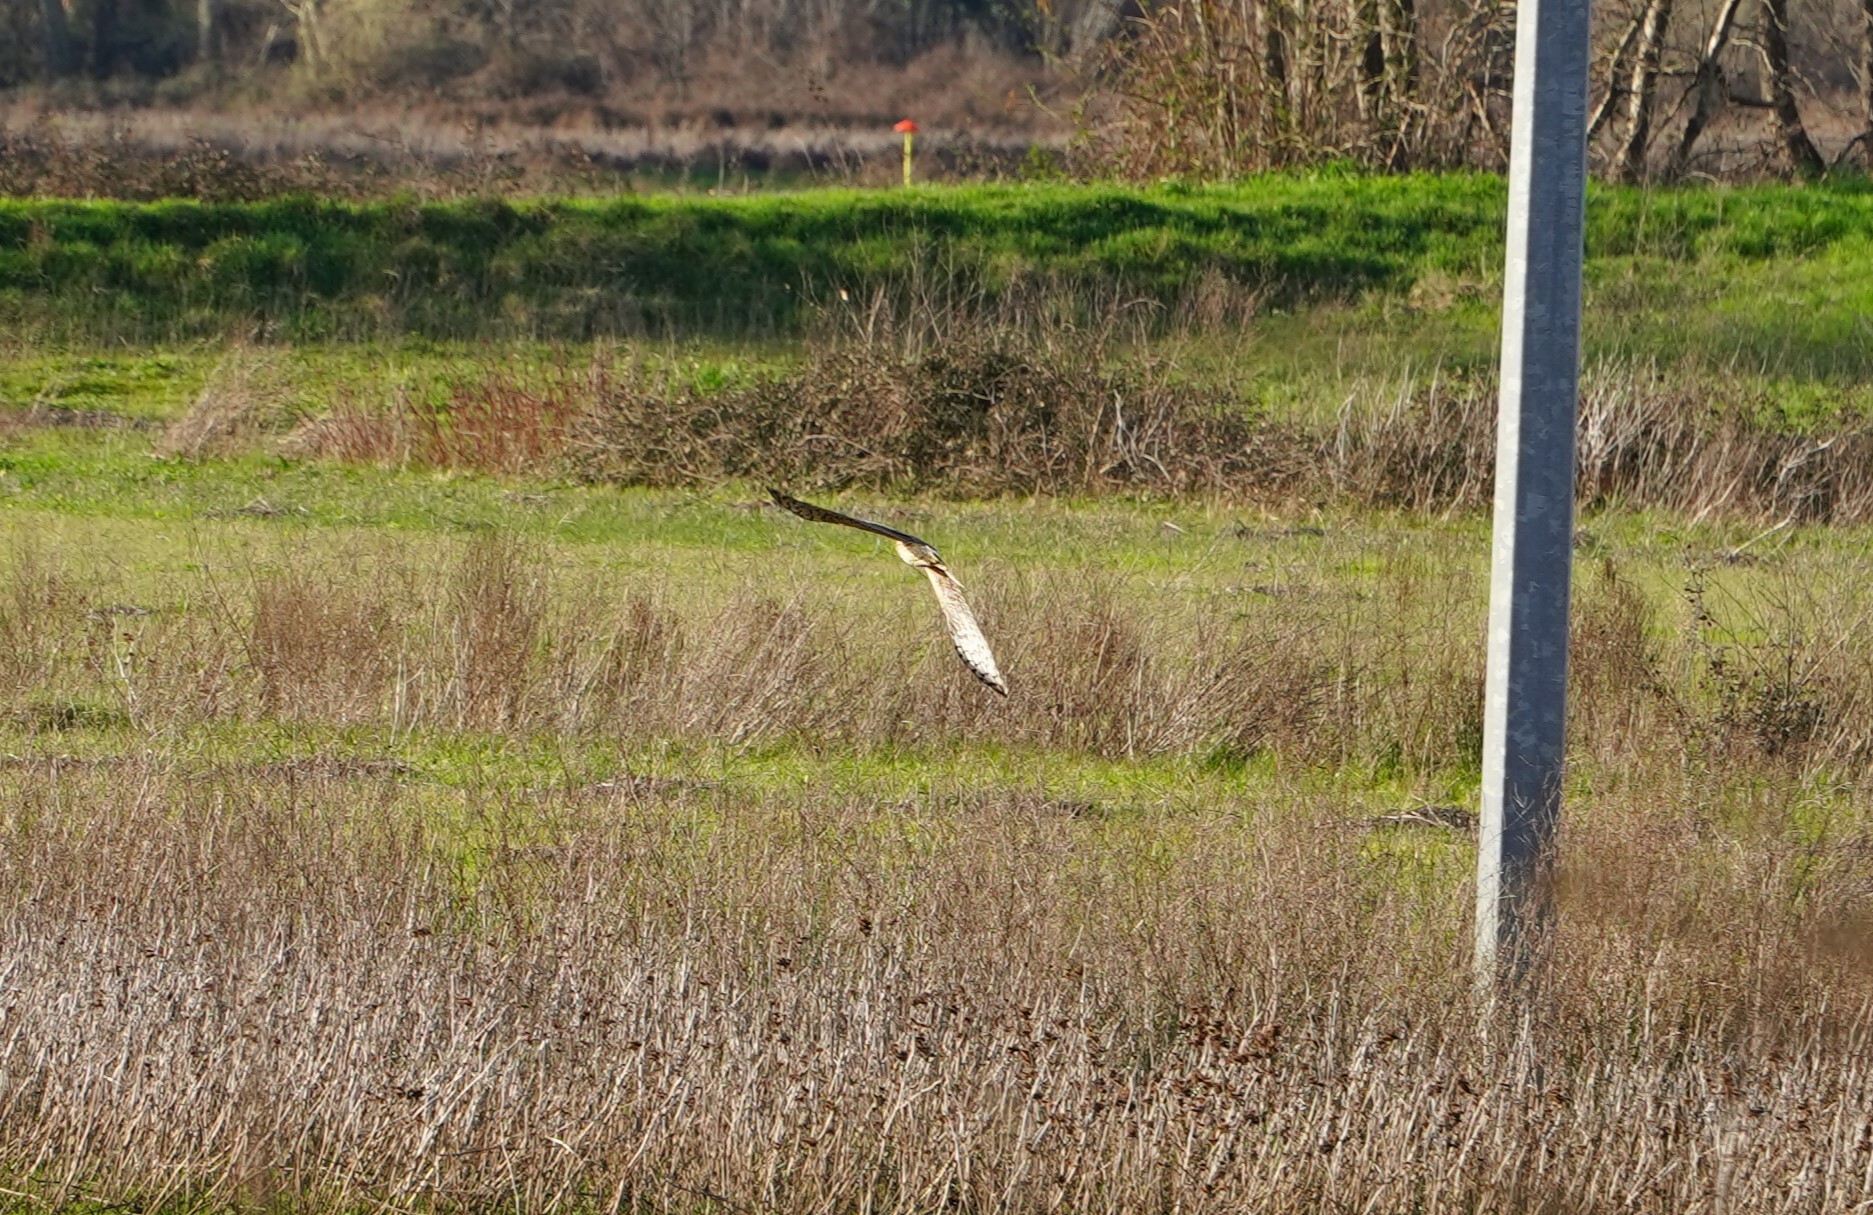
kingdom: Animalia
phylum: Chordata
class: Aves
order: Accipitriformes
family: Accipitridae
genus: Circus
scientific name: Circus cyaneus
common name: Hen harrier
